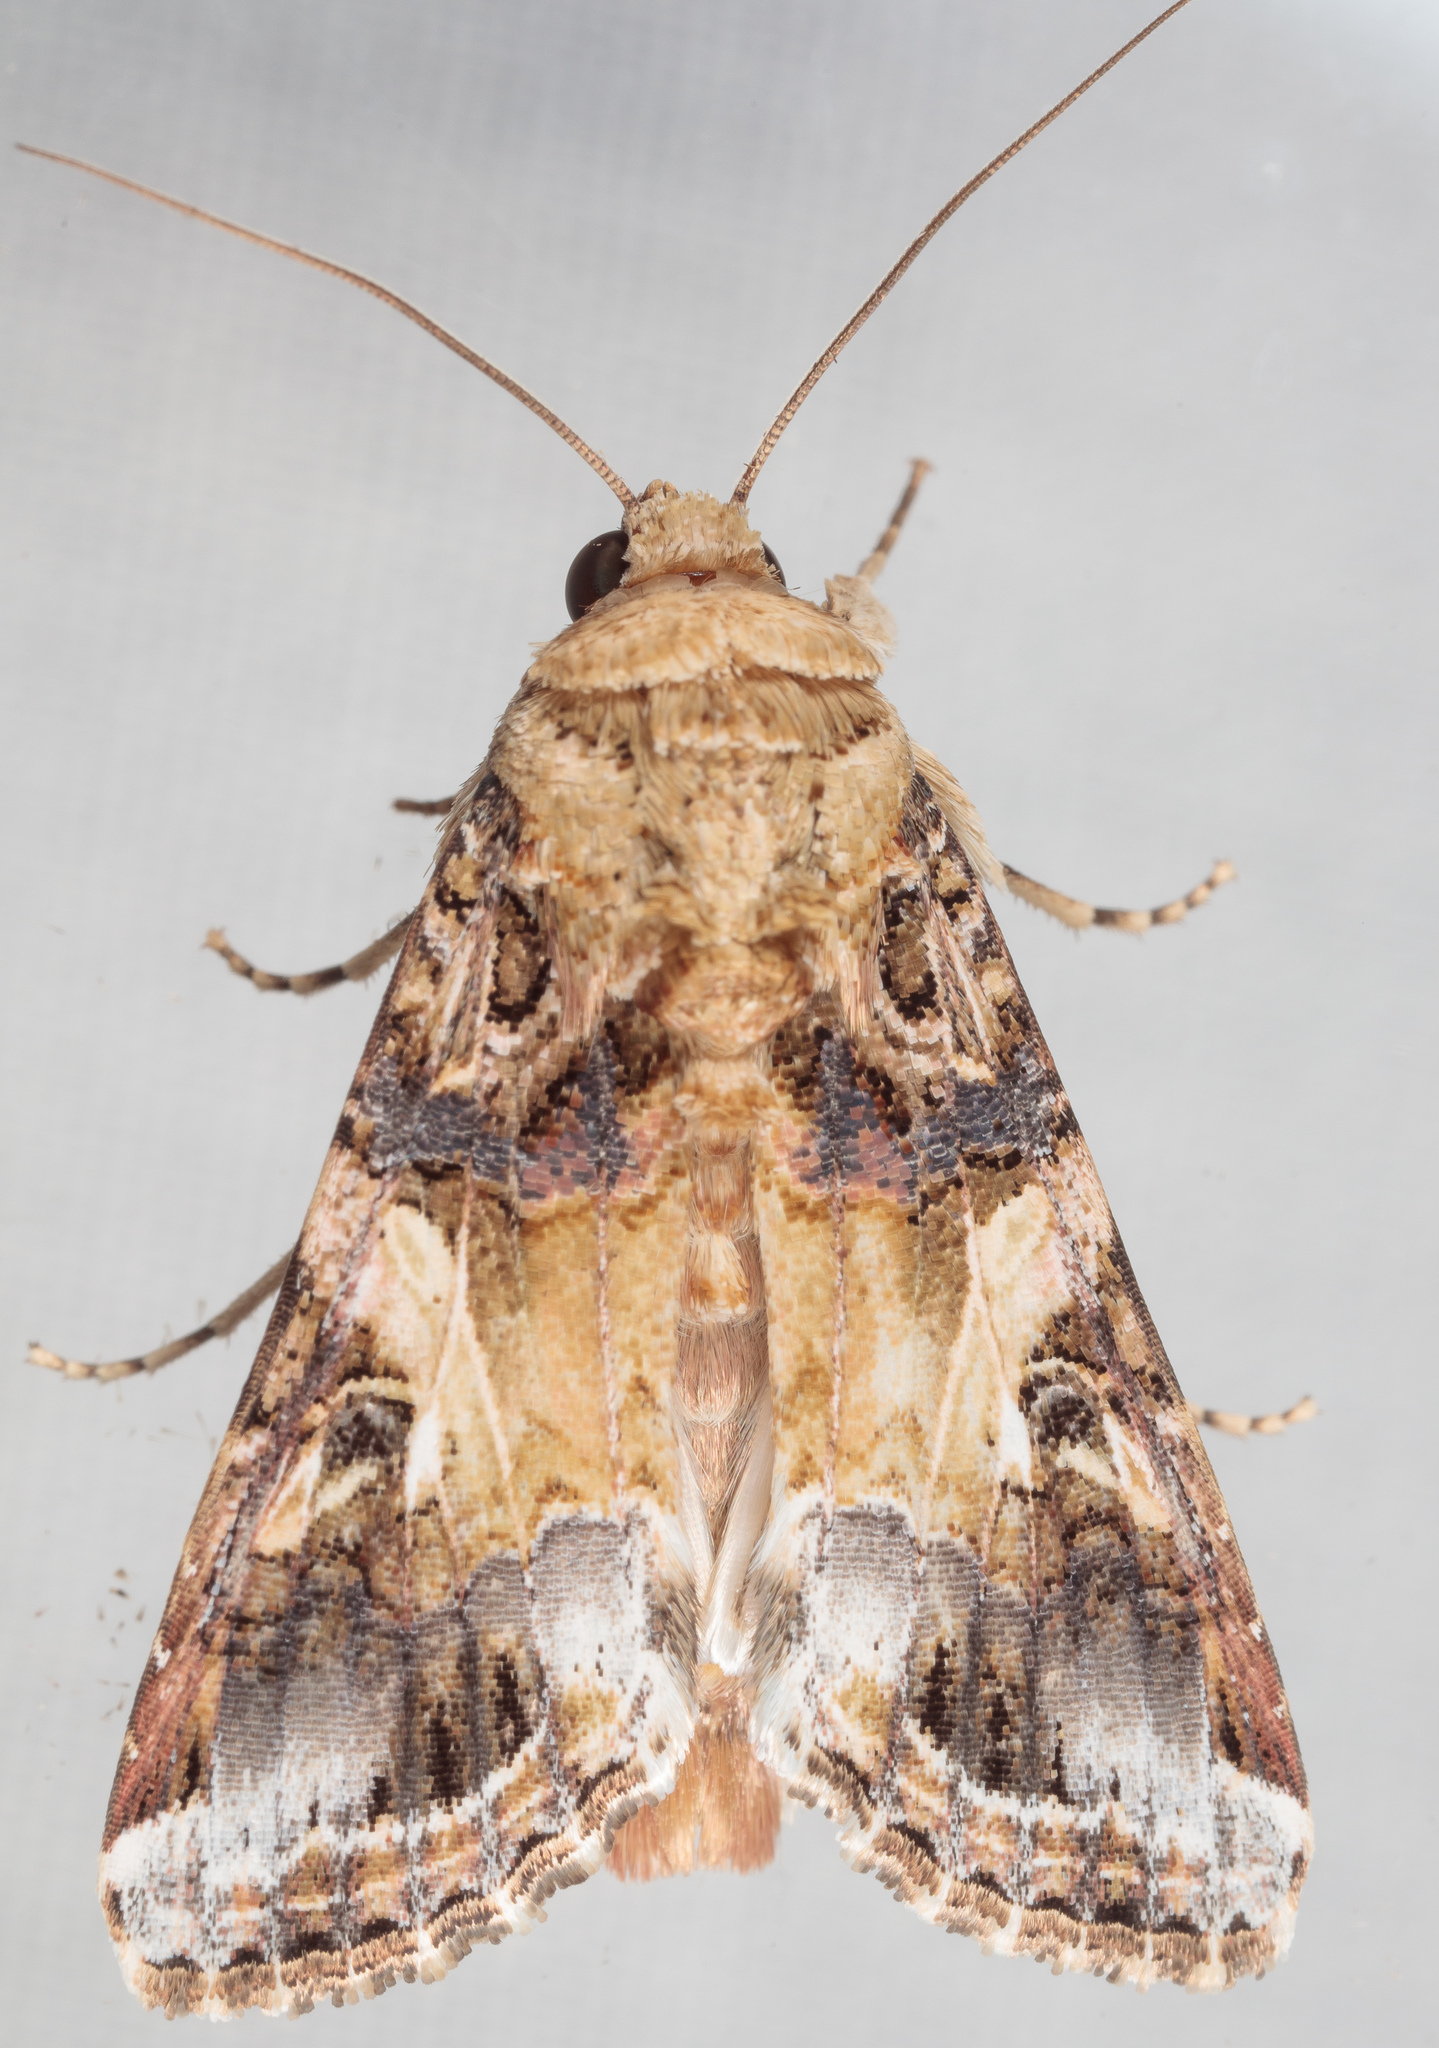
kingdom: Animalia
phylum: Arthropoda
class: Insecta
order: Lepidoptera
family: Noctuidae
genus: Spodoptera
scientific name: Spodoptera ornithogalli
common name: Yellow-striped armyworm
